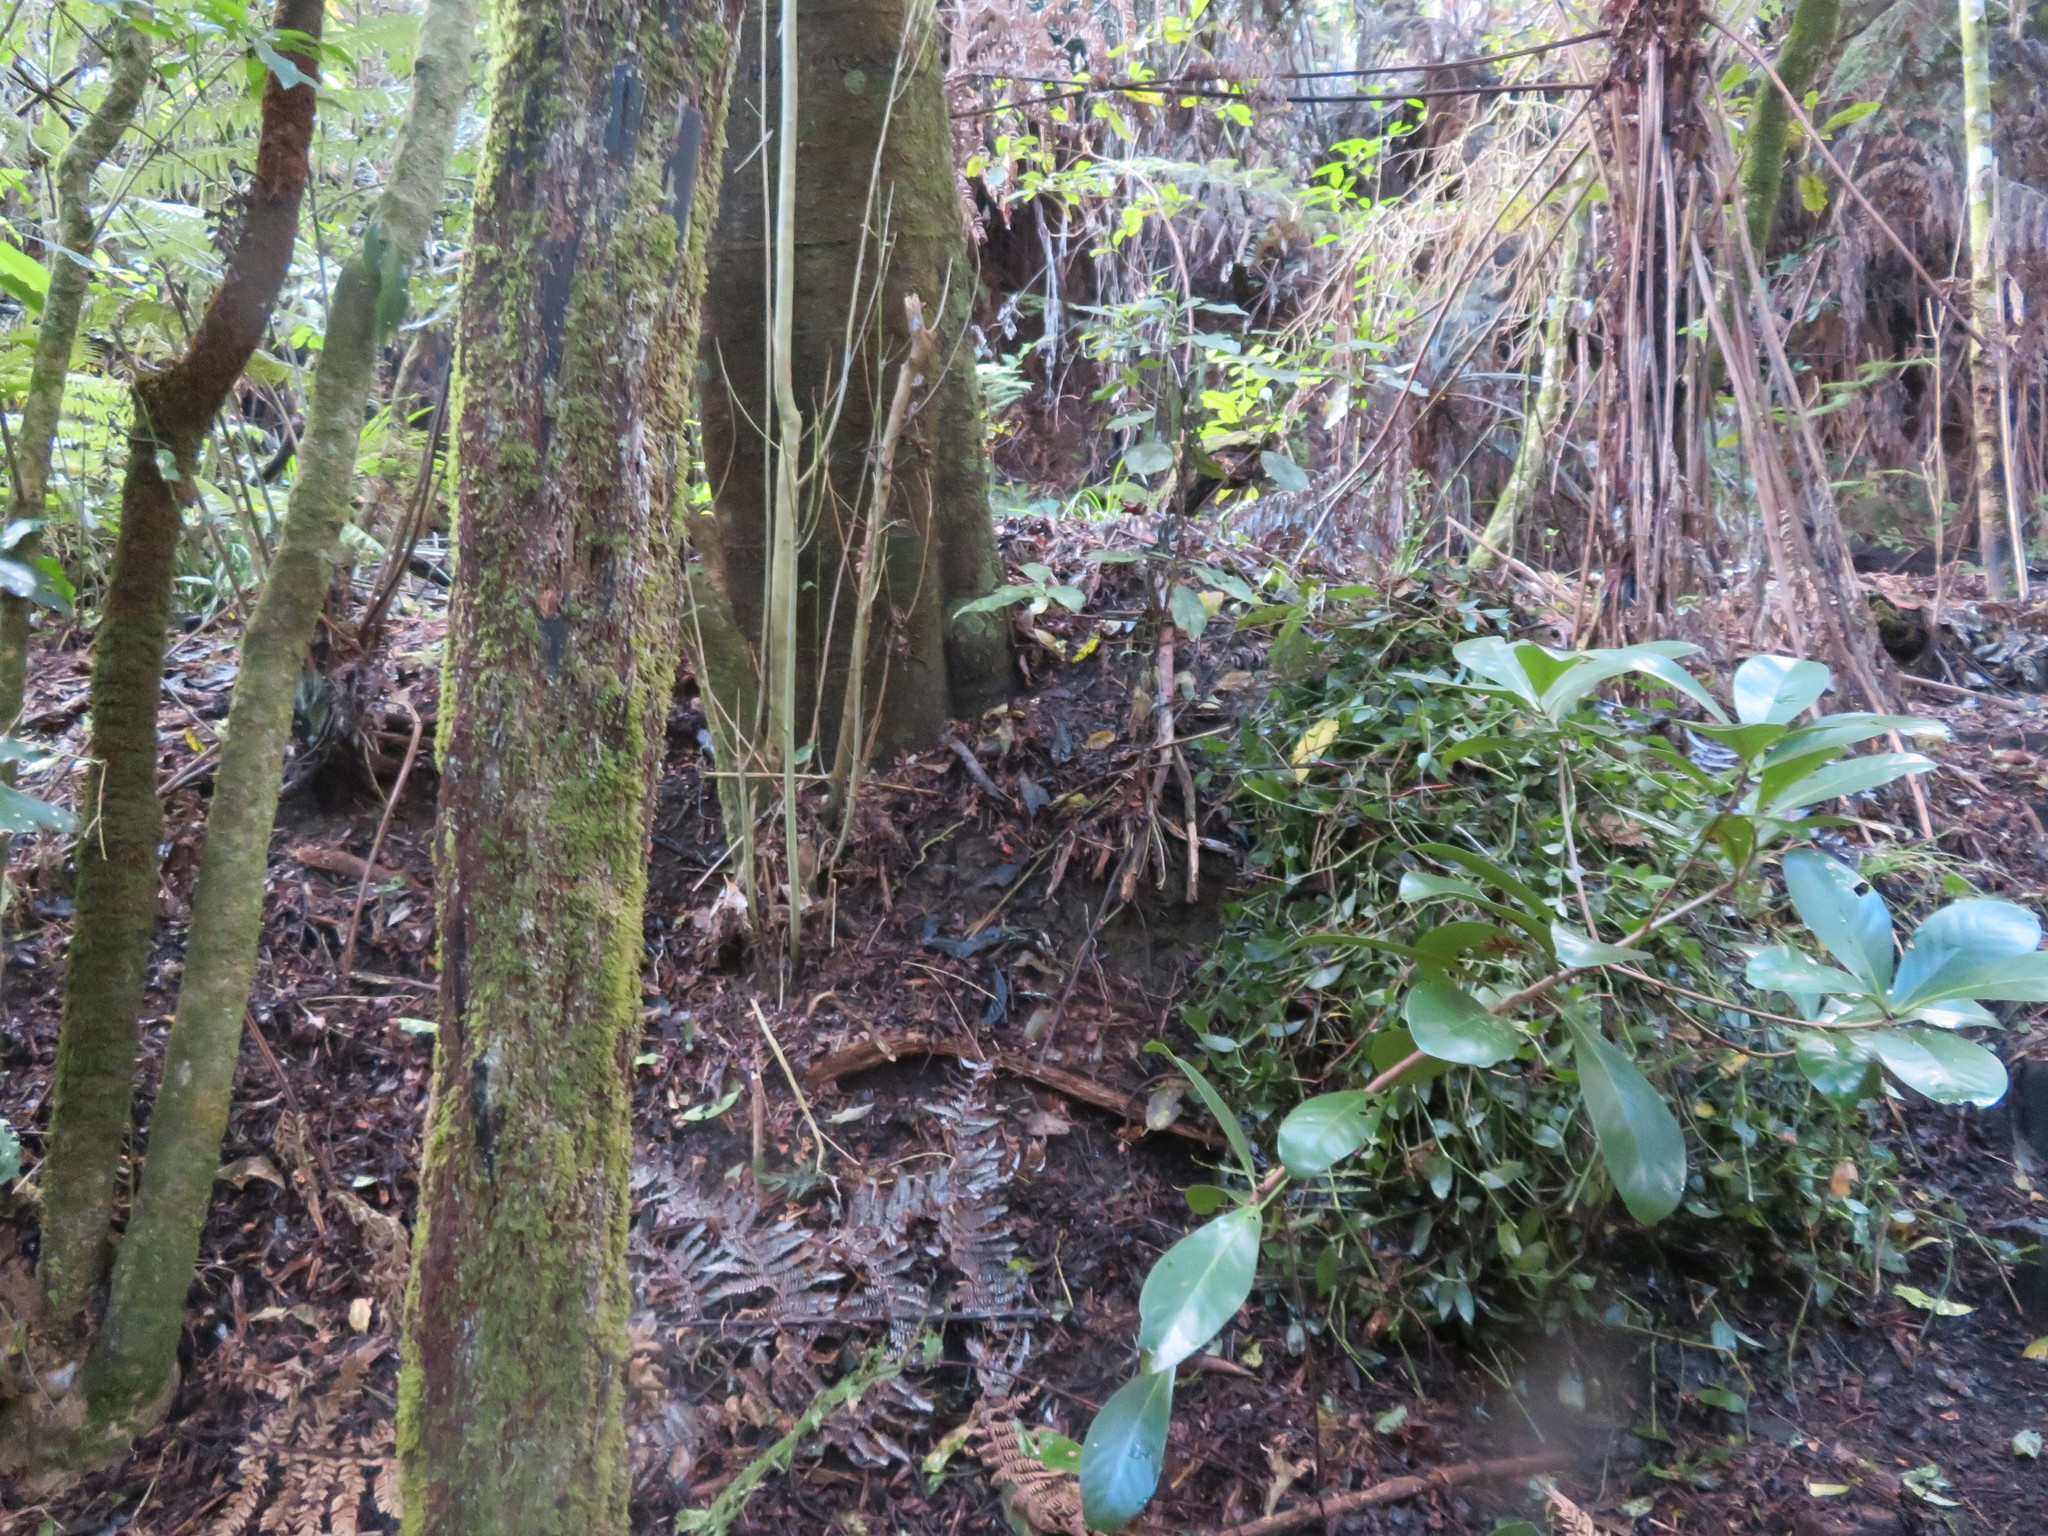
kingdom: Plantae
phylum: Tracheophyta
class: Magnoliopsida
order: Cucurbitales
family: Corynocarpaceae
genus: Corynocarpus
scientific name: Corynocarpus laevigatus
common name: New zealand laurel
